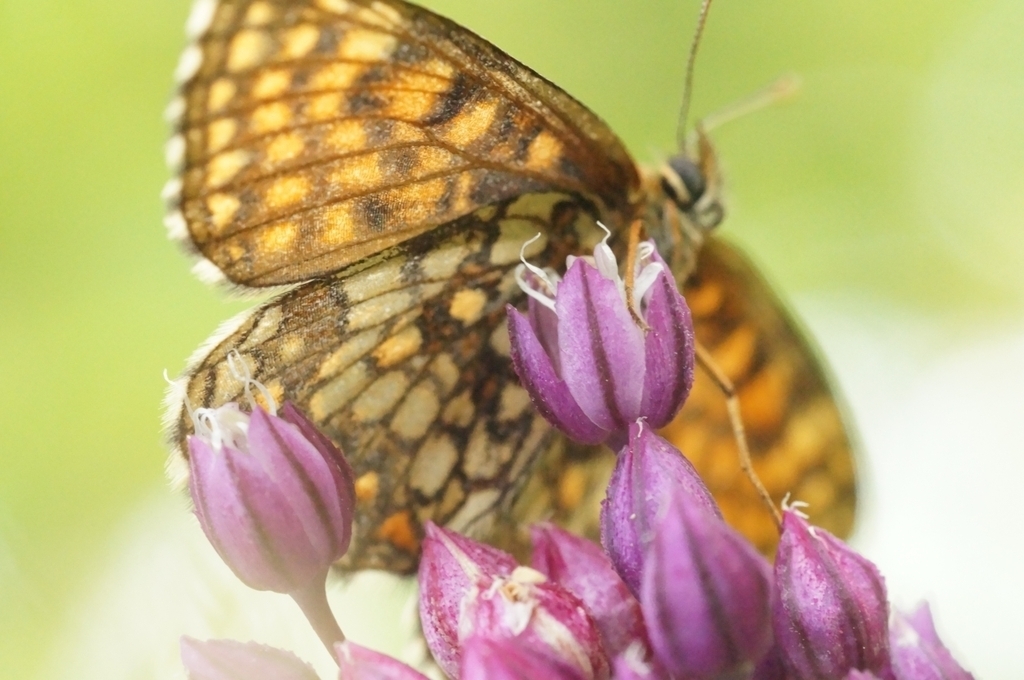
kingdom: Animalia
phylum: Arthropoda
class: Insecta
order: Lepidoptera
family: Nymphalidae
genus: Mellicta
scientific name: Mellicta britomartis
